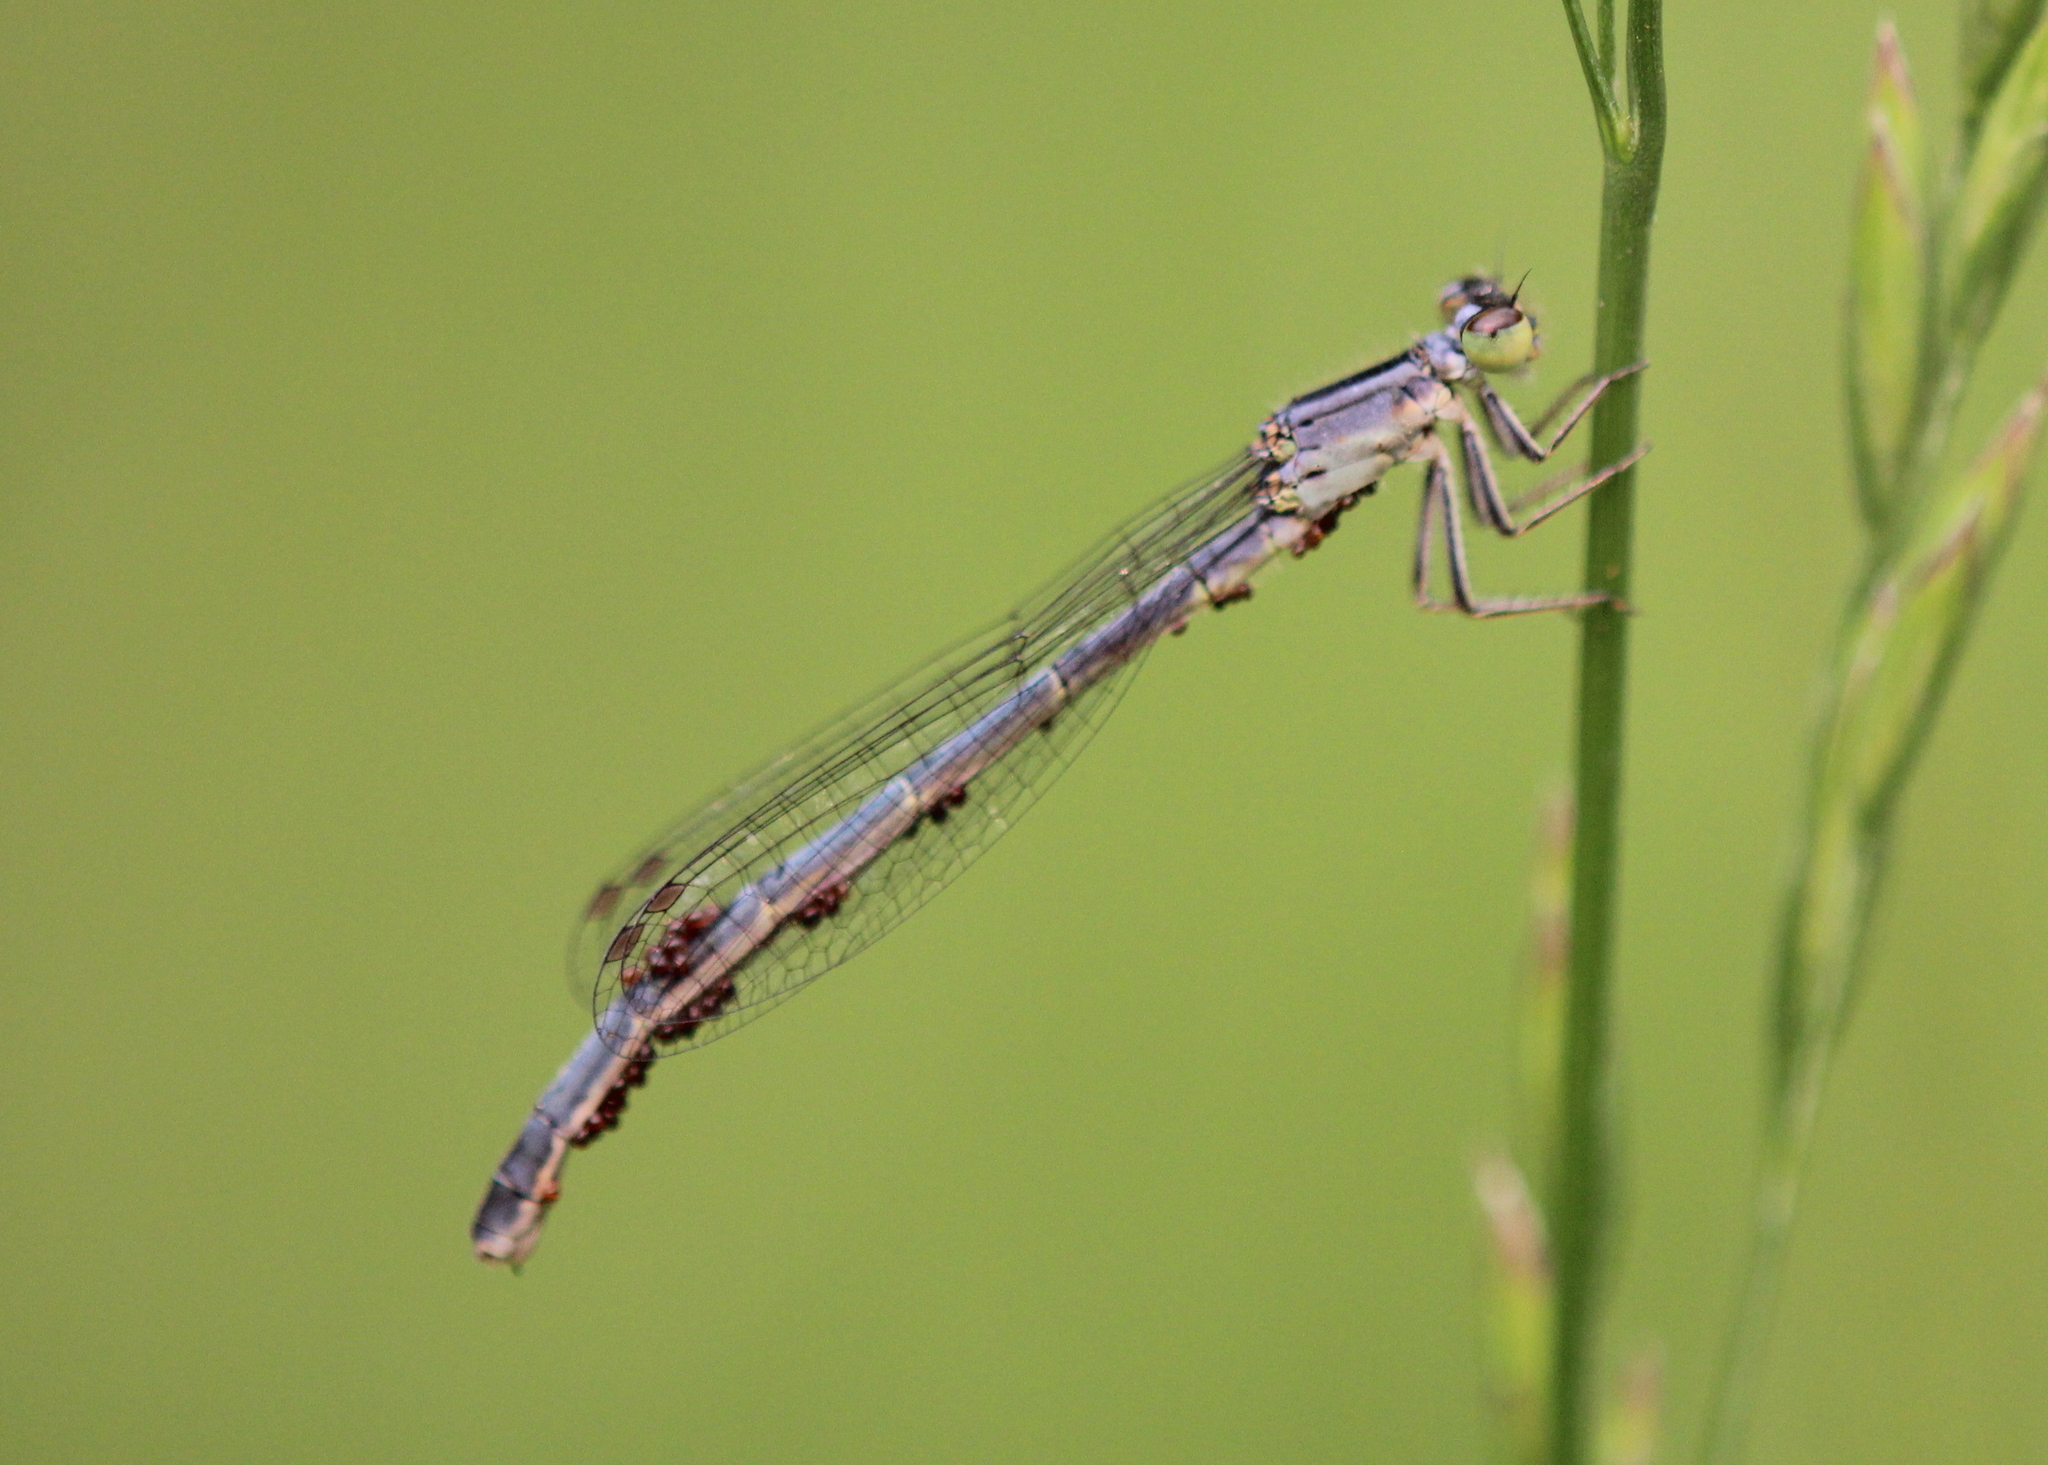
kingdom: Animalia
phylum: Arthropoda
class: Insecta
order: Odonata
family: Coenagrionidae
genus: Ischnura
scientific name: Ischnura verticalis
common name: Eastern forktail
